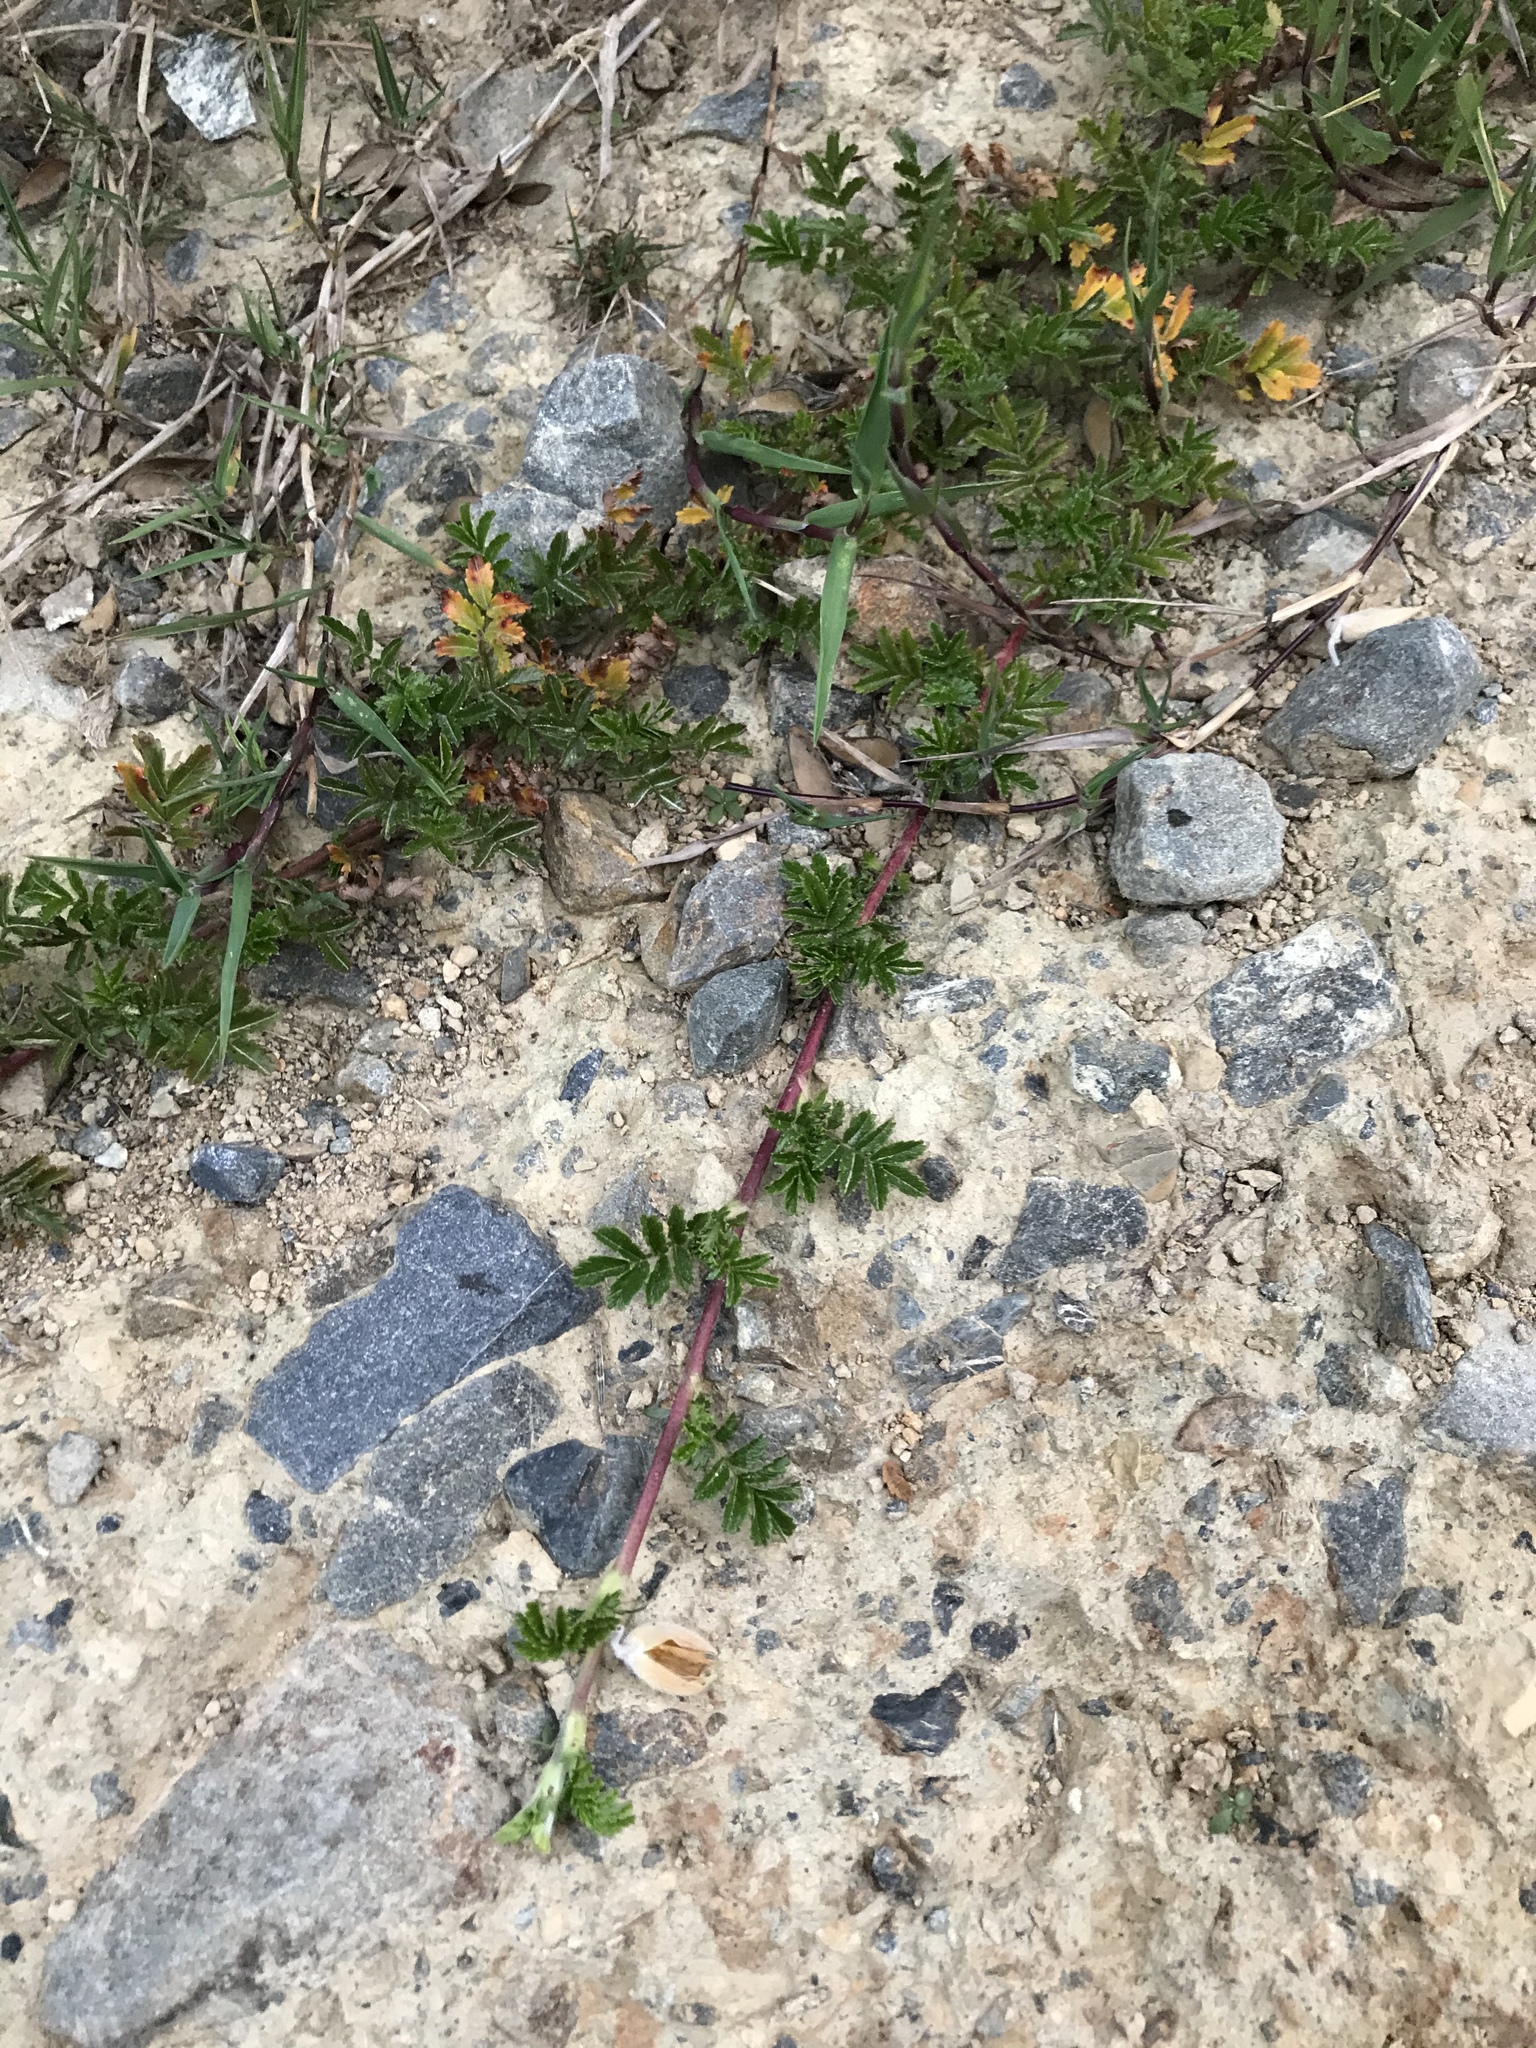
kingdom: Plantae
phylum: Tracheophyta
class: Magnoliopsida
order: Rosales
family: Rosaceae
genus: Acaena
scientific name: Acaena novae-zelandiae
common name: Pirri-pirri-bur
